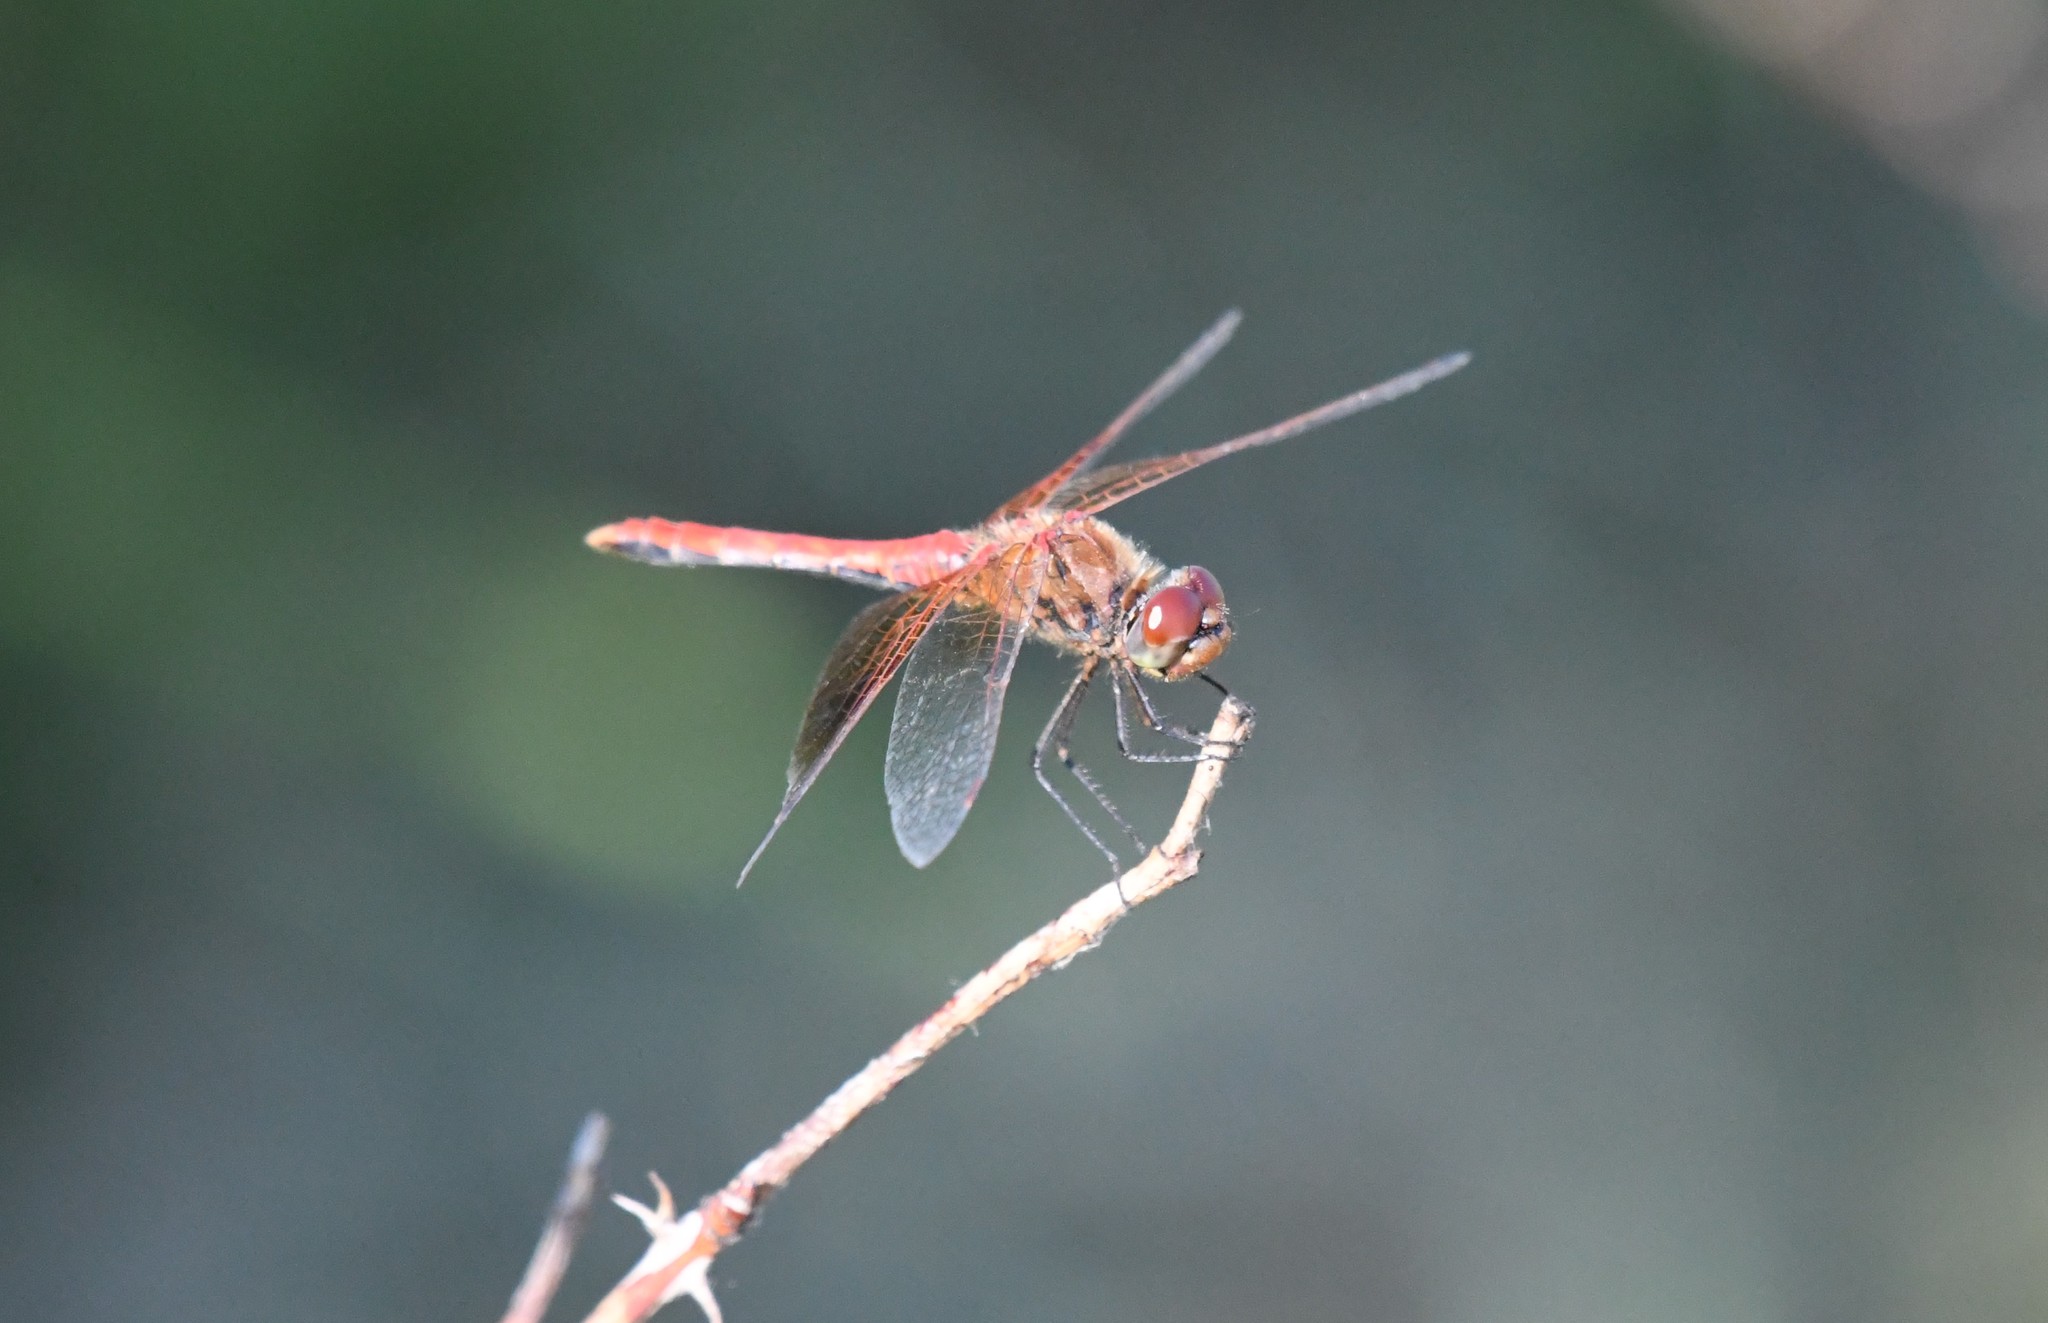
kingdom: Animalia
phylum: Arthropoda
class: Insecta
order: Odonata
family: Libellulidae
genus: Sympetrum
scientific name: Sympetrum semicinctum
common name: Band-winged meadowhawk
